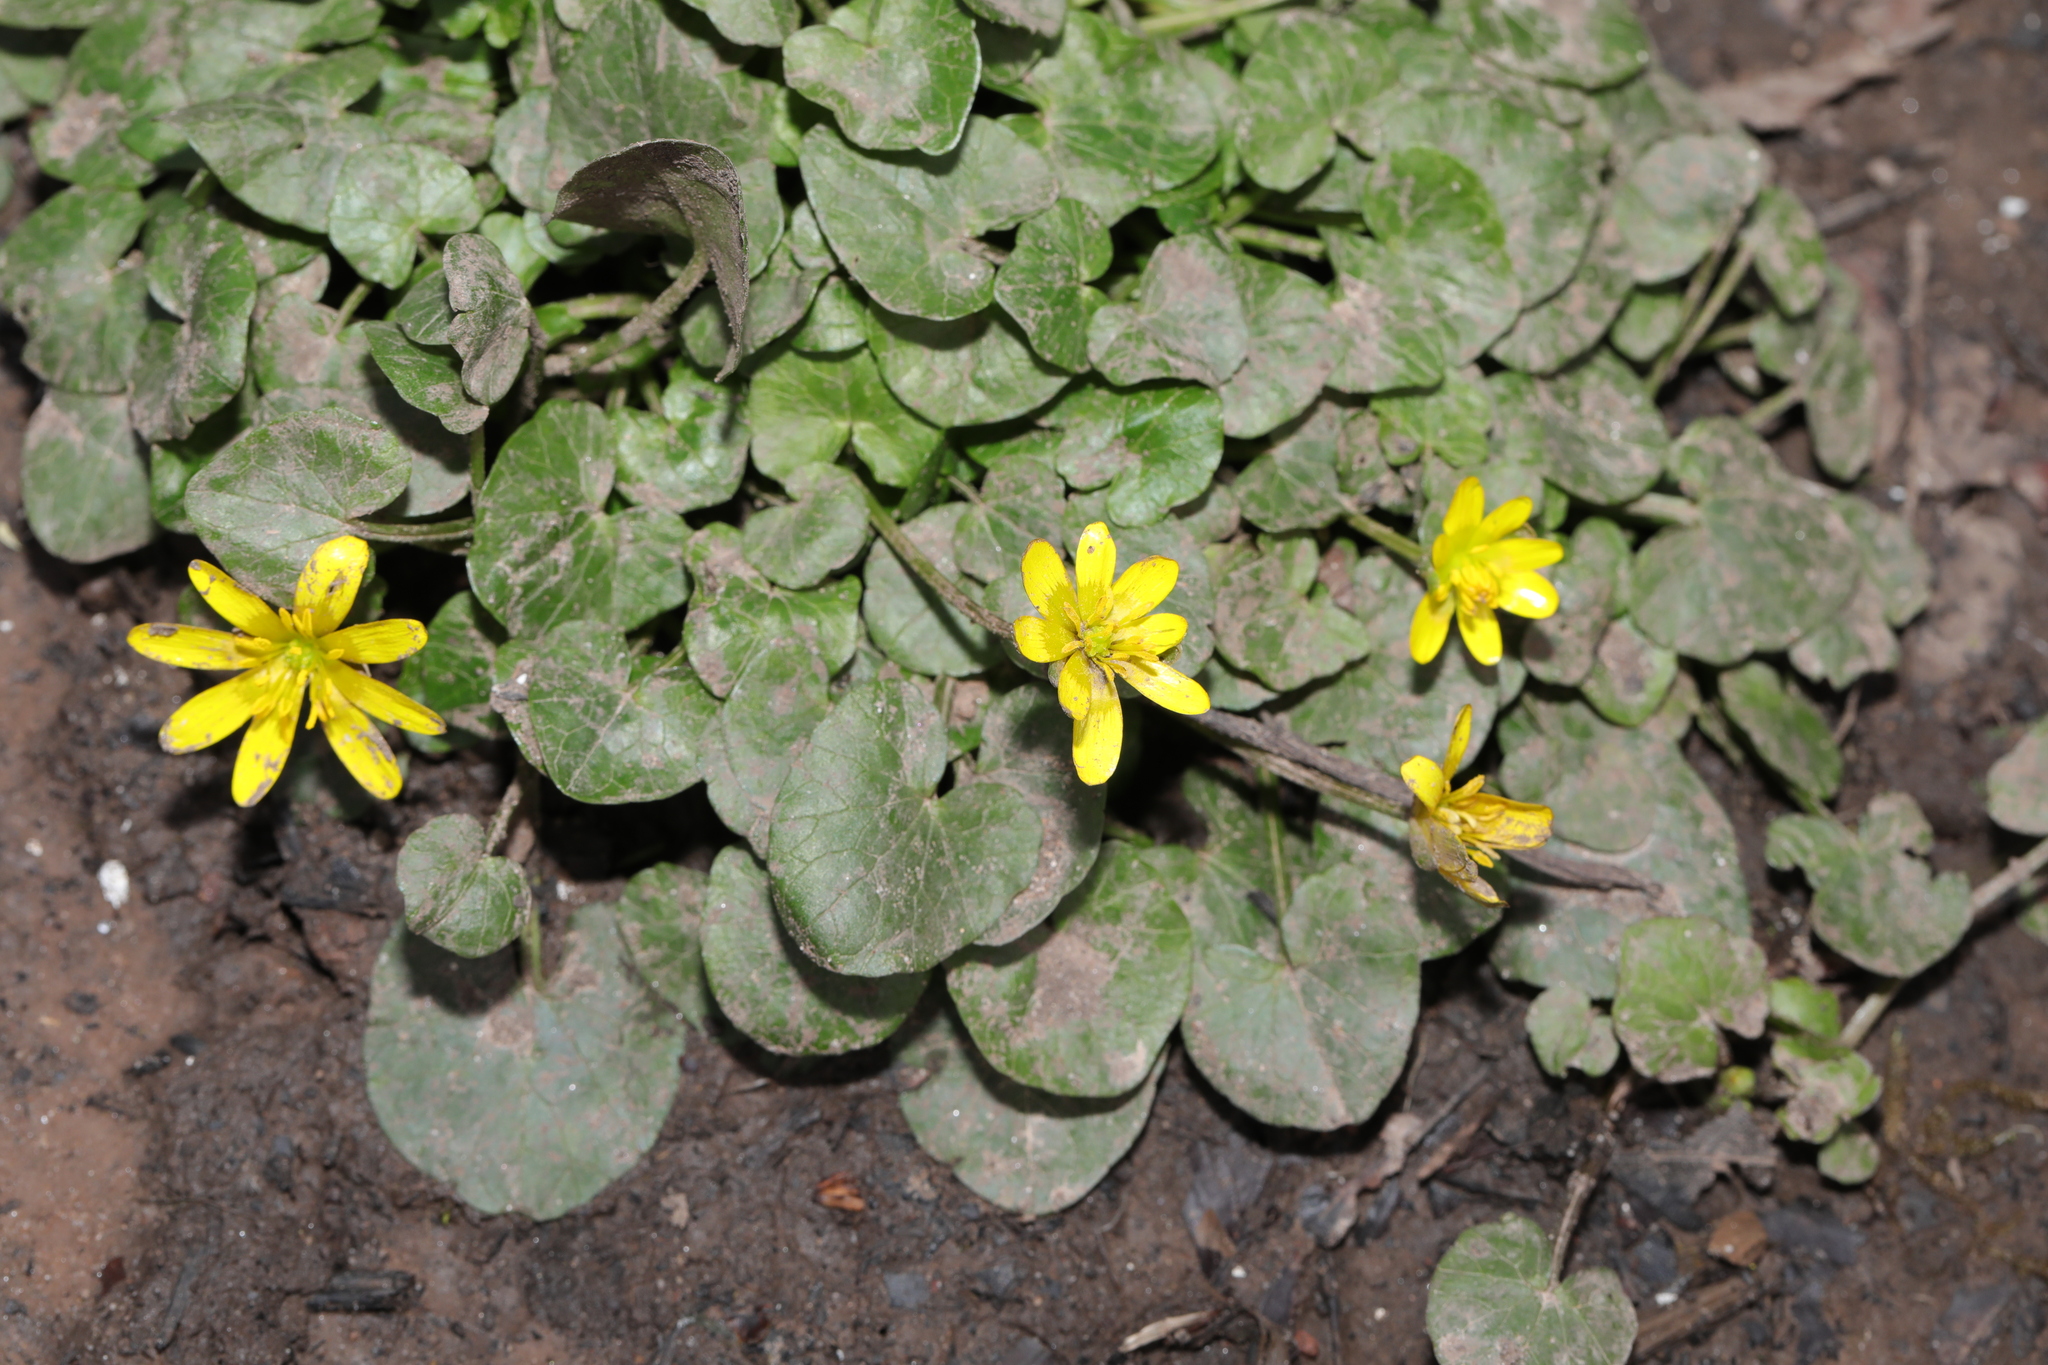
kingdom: Plantae
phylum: Tracheophyta
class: Magnoliopsida
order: Ranunculales
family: Ranunculaceae
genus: Ficaria
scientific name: Ficaria verna
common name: Lesser celandine
